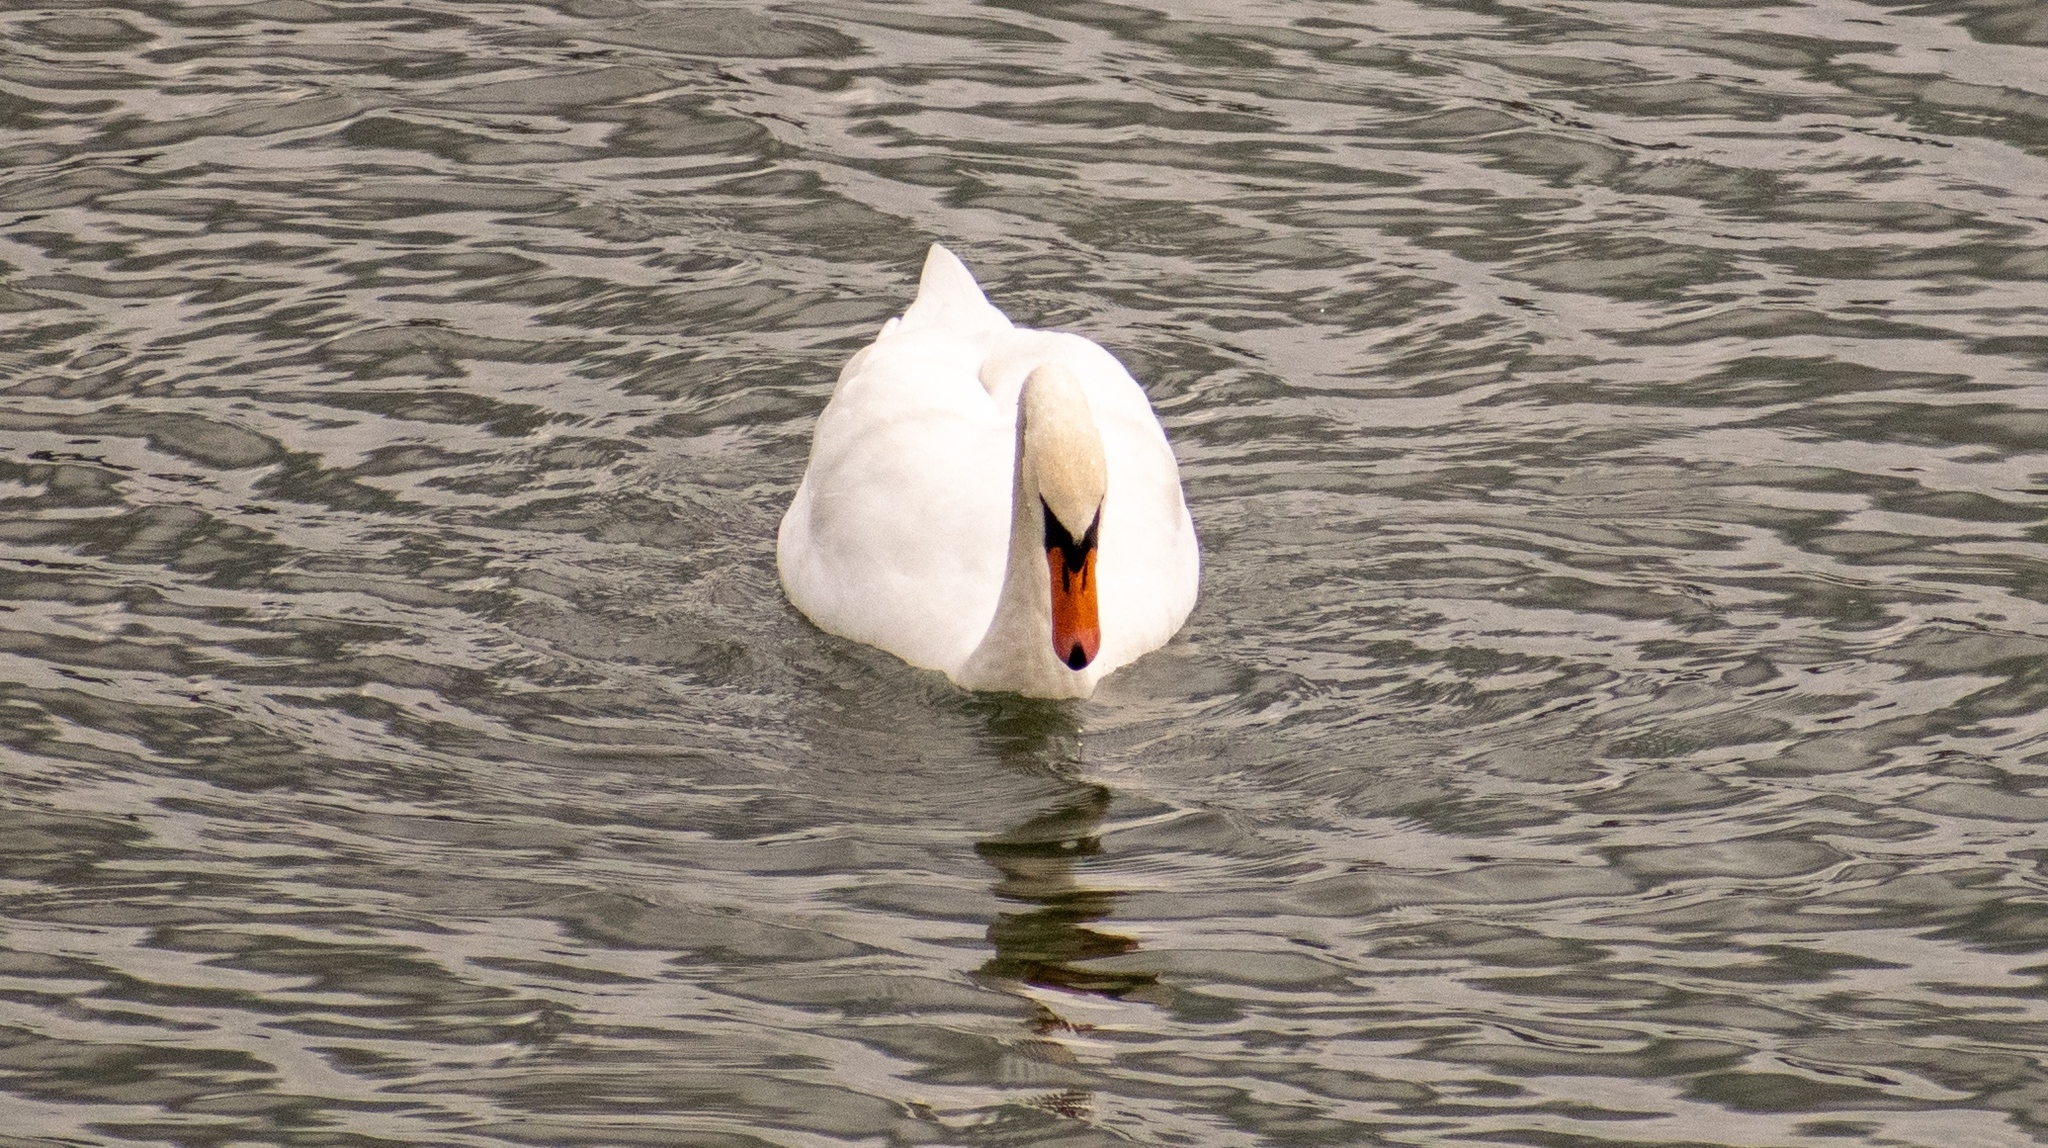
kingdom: Animalia
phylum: Chordata
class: Aves
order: Anseriformes
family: Anatidae
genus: Cygnus
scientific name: Cygnus olor
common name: Mute swan
